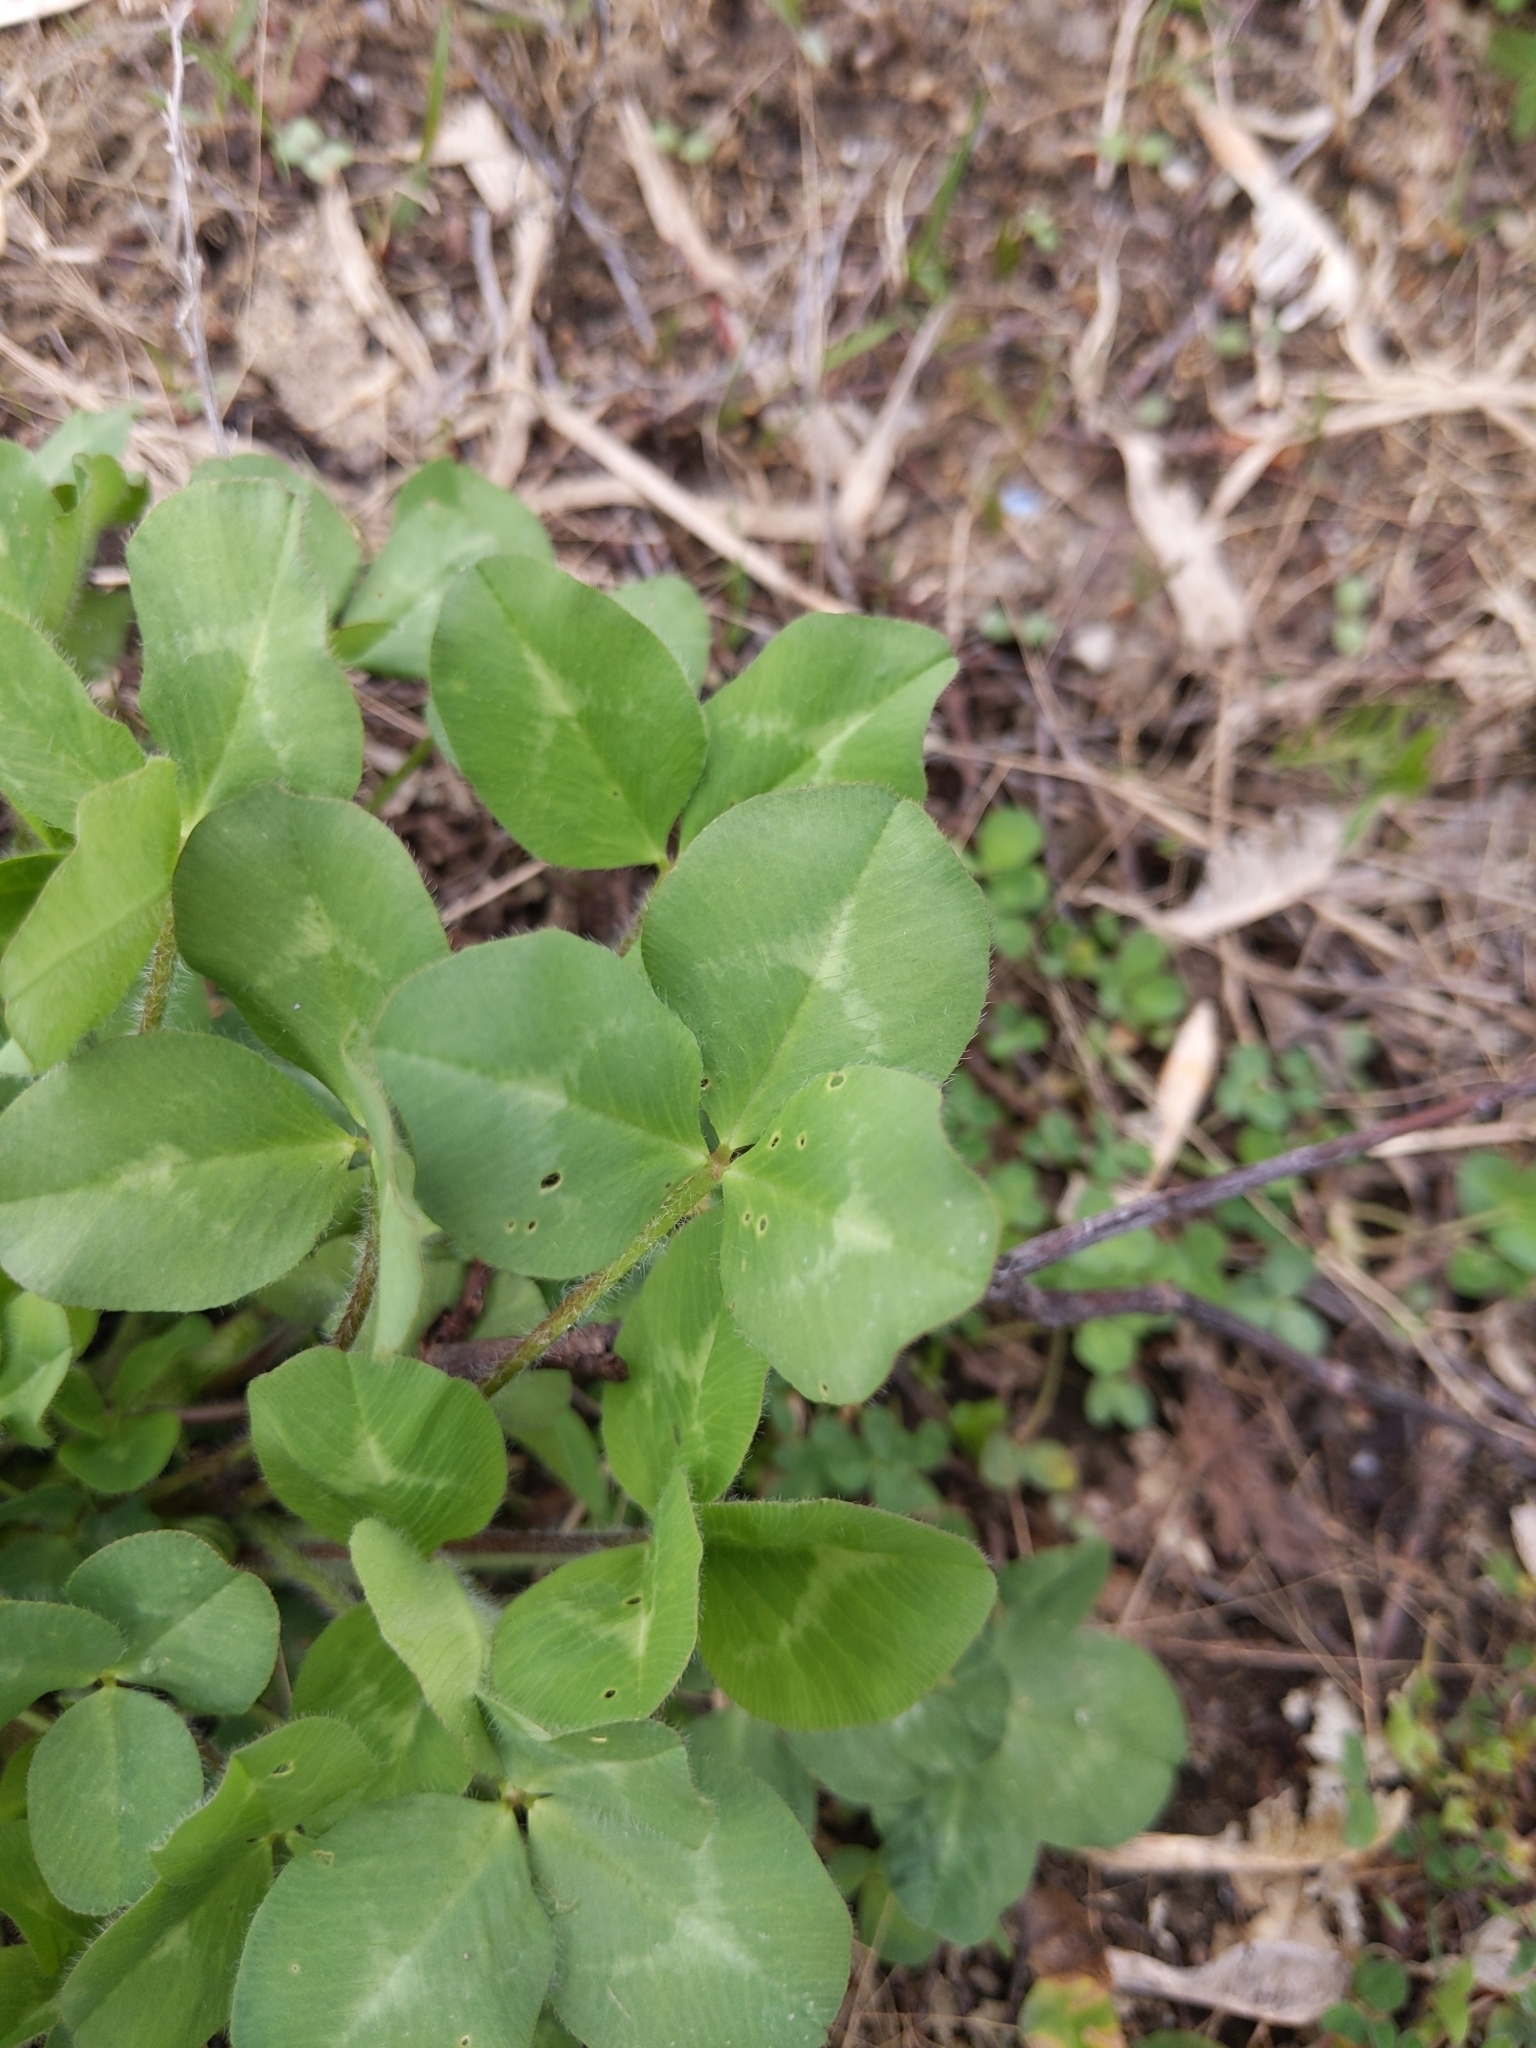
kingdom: Plantae
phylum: Tracheophyta
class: Magnoliopsida
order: Fabales
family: Fabaceae
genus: Trifolium
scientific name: Trifolium pratense
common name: Red clover
